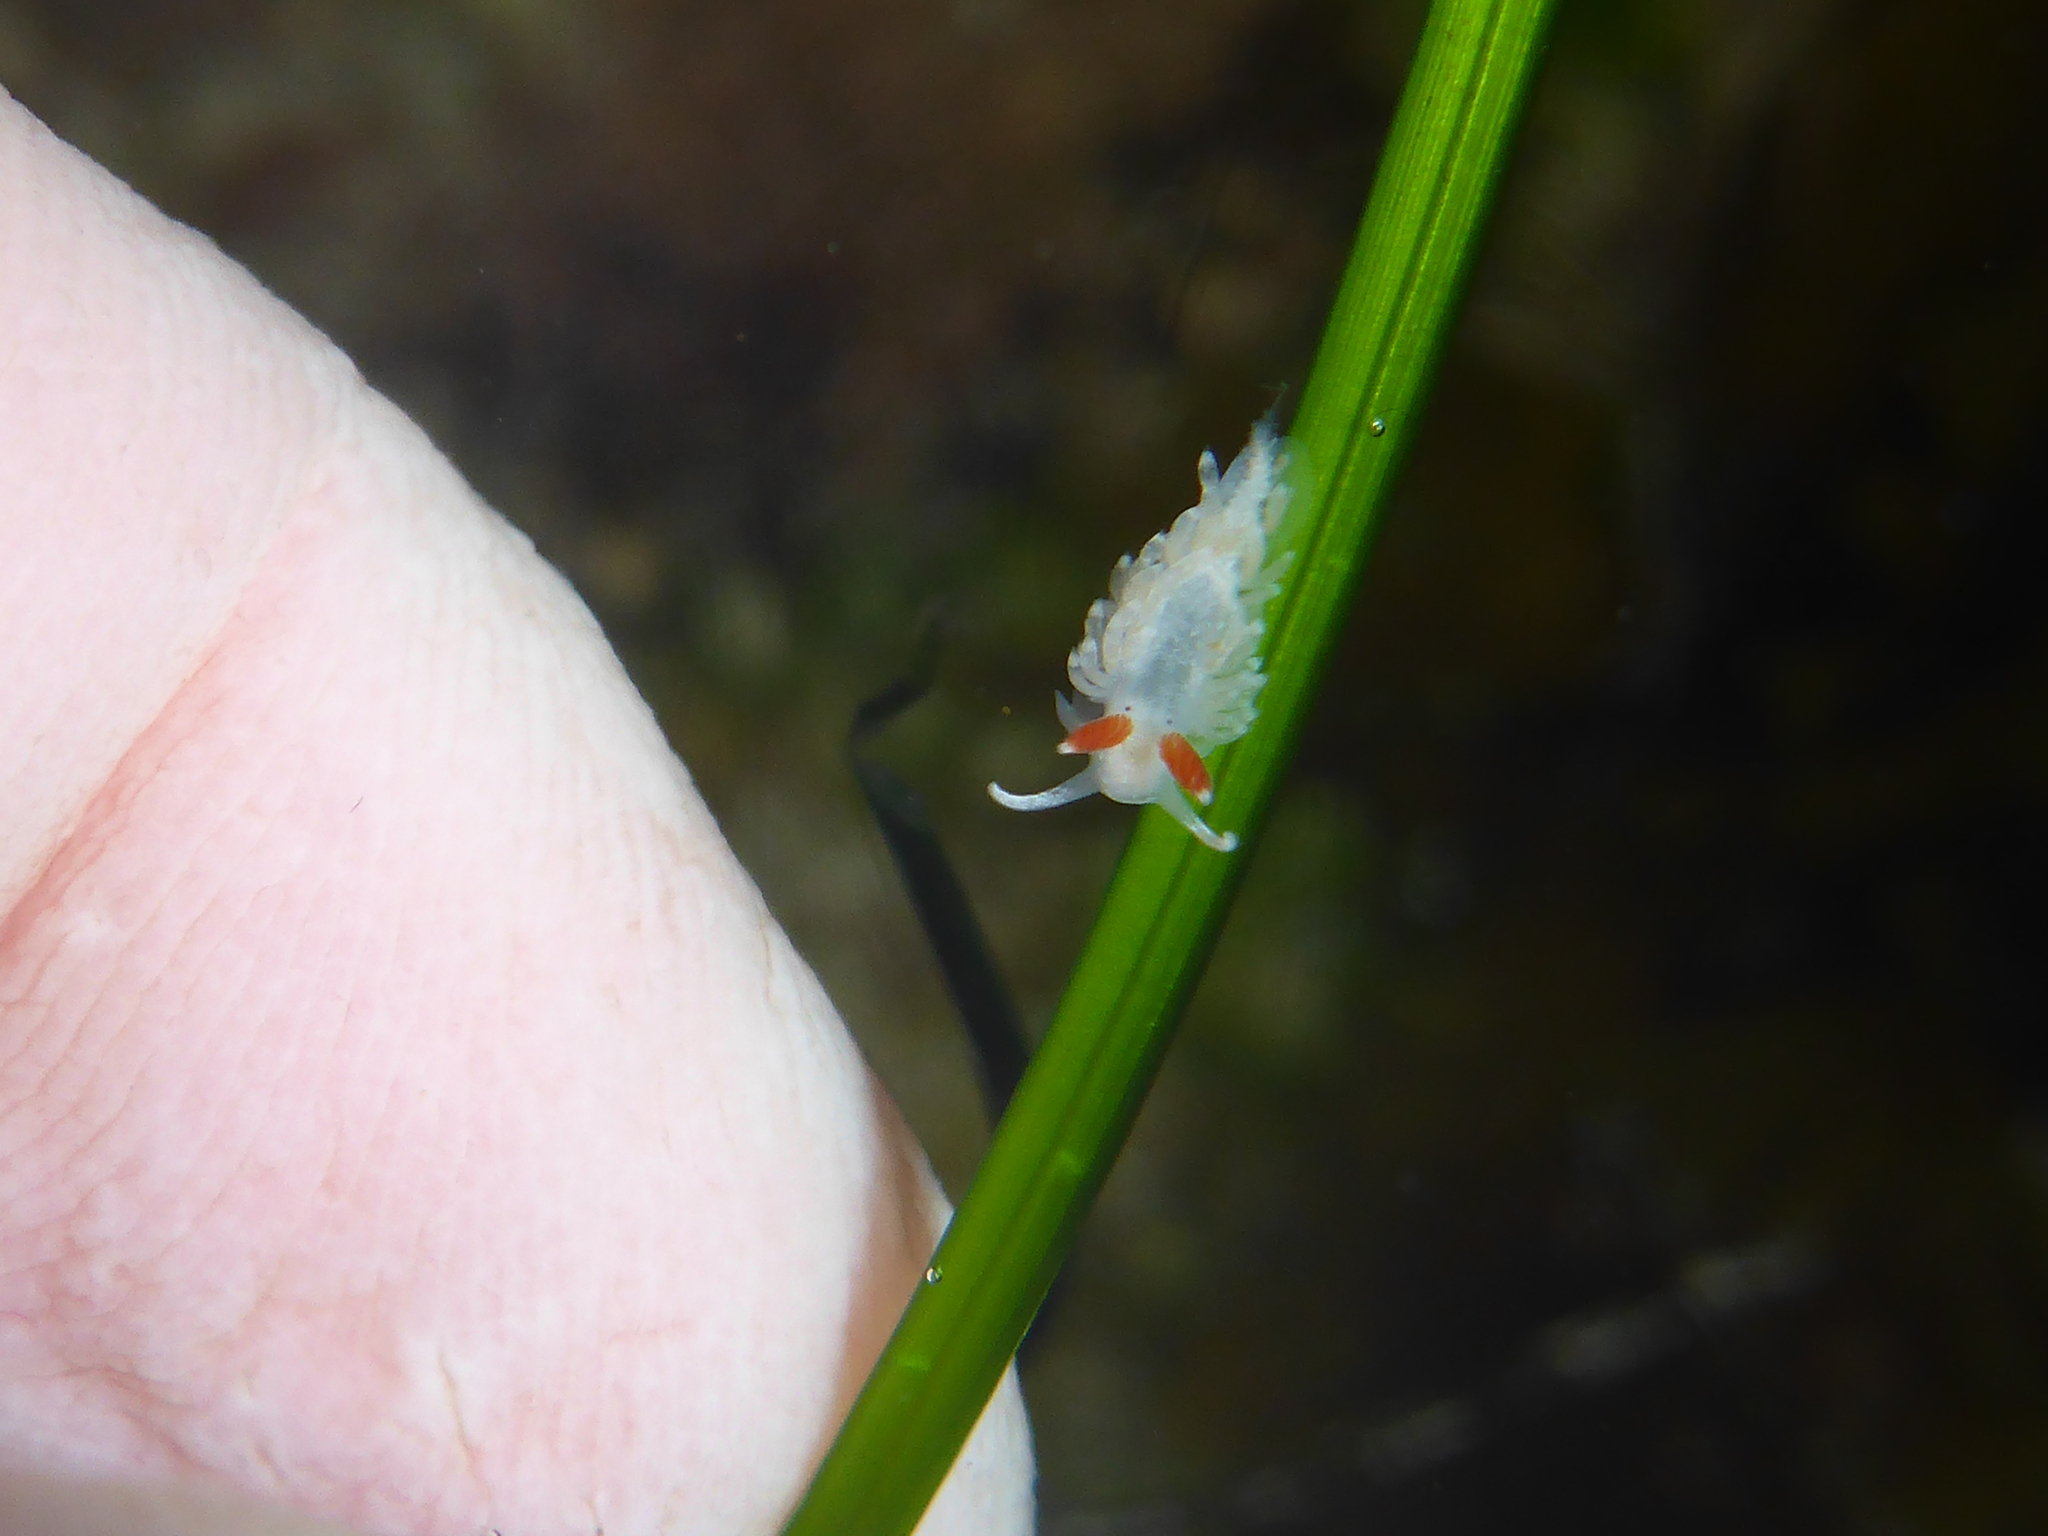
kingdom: Animalia
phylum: Mollusca
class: Gastropoda
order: Nudibranchia
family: Aeolidiidae
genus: Anteaeolidiella
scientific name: Anteaeolidiella oliviae
